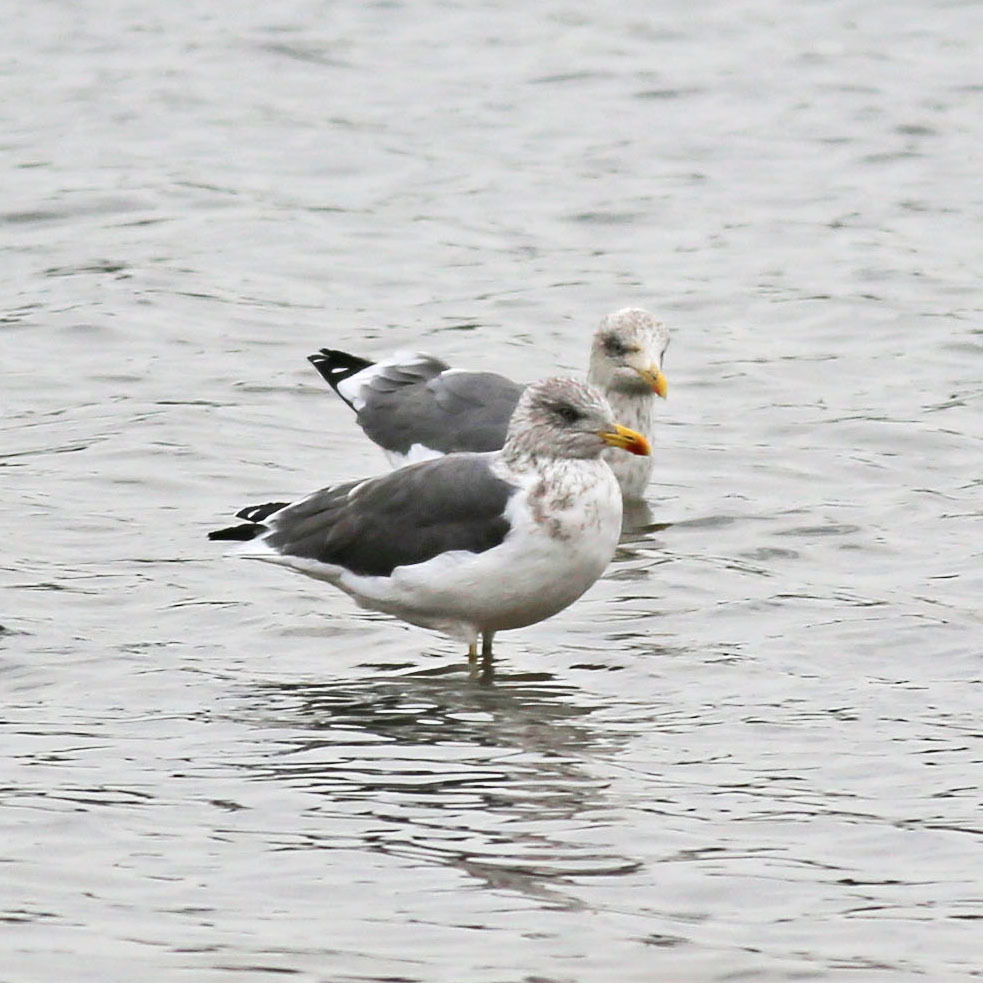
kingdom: Animalia
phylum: Chordata
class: Aves
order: Charadriiformes
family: Laridae
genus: Larus
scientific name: Larus fuscus
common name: Lesser black-backed gull
